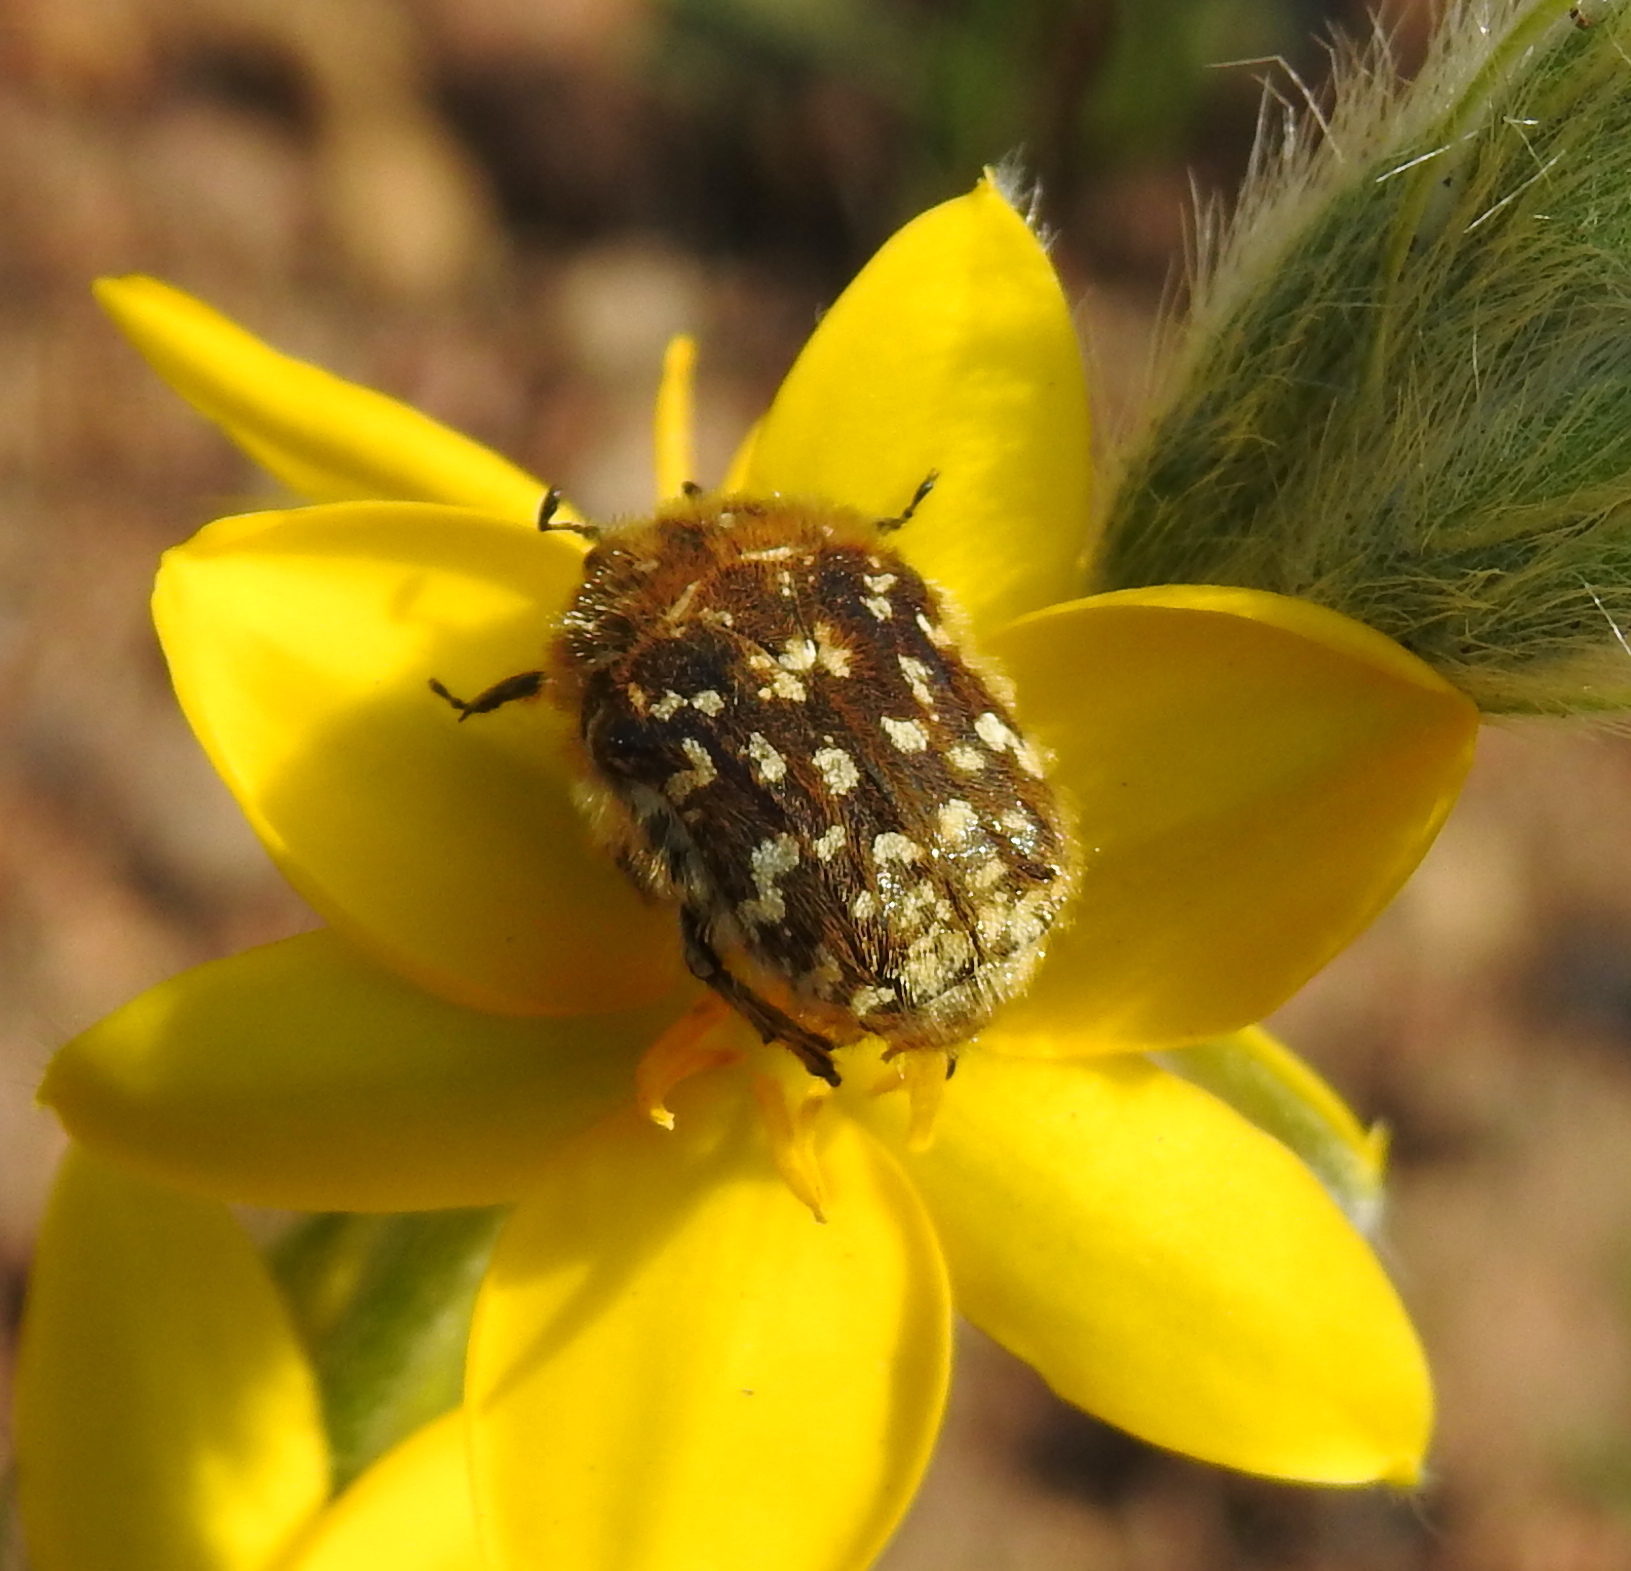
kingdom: Animalia
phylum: Arthropoda
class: Insecta
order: Coleoptera
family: Scarabaeidae
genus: Xeloma
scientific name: Xeloma tomentosa
